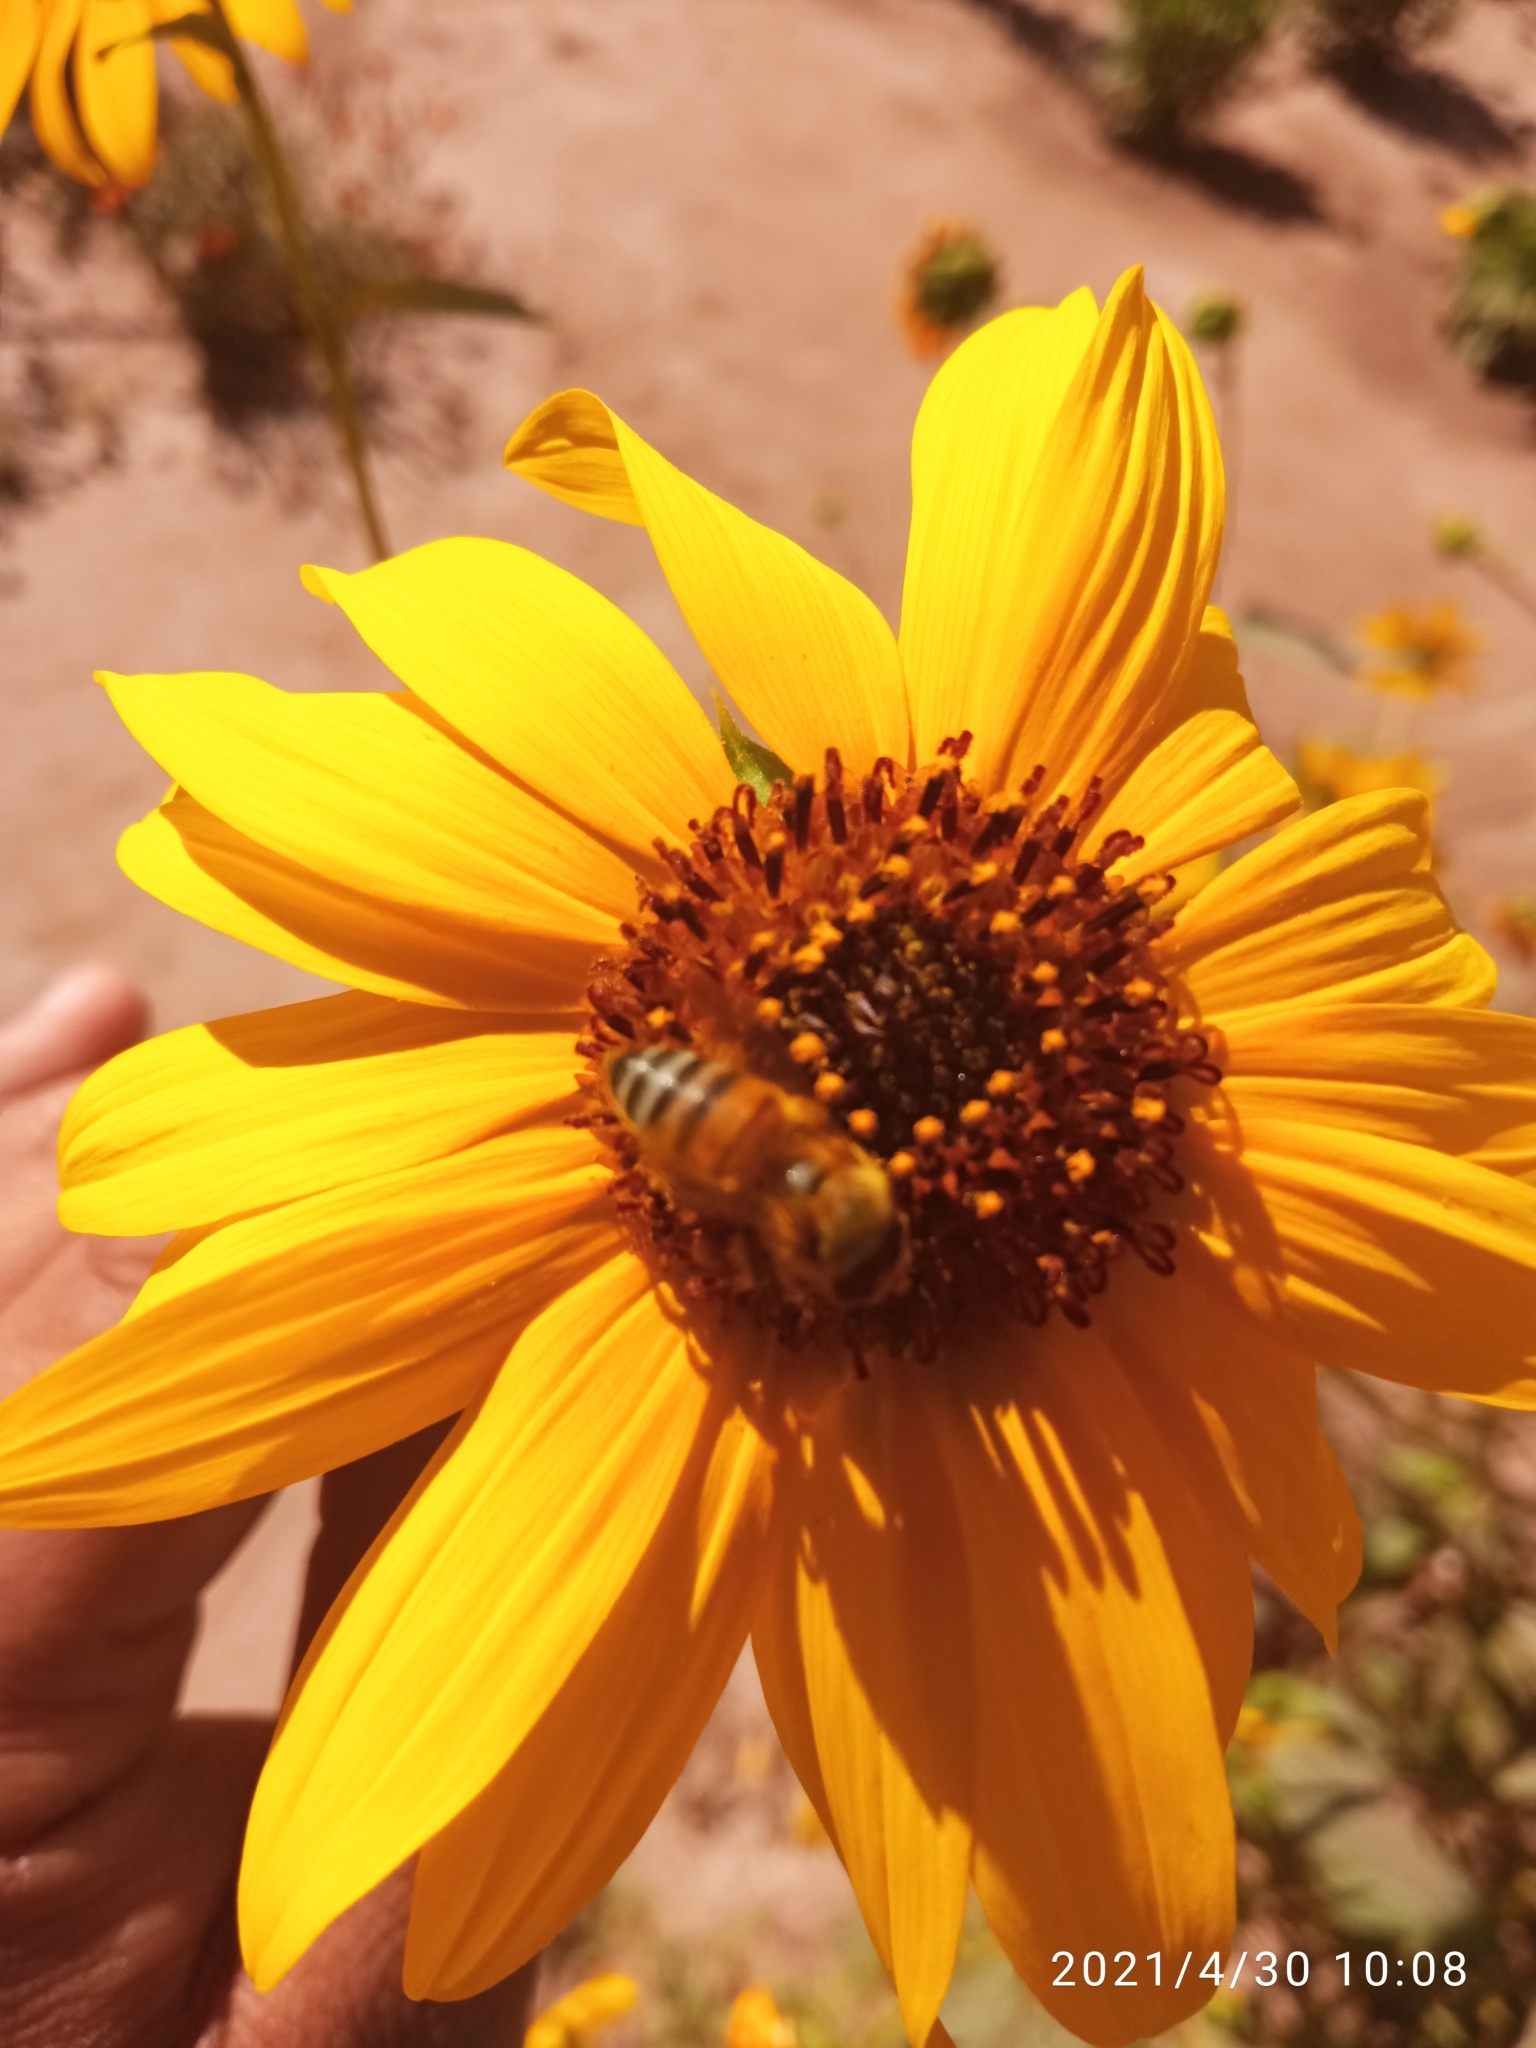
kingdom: Animalia
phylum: Arthropoda
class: Insecta
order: Hymenoptera
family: Apidae
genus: Apis
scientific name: Apis mellifera
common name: Honey bee
